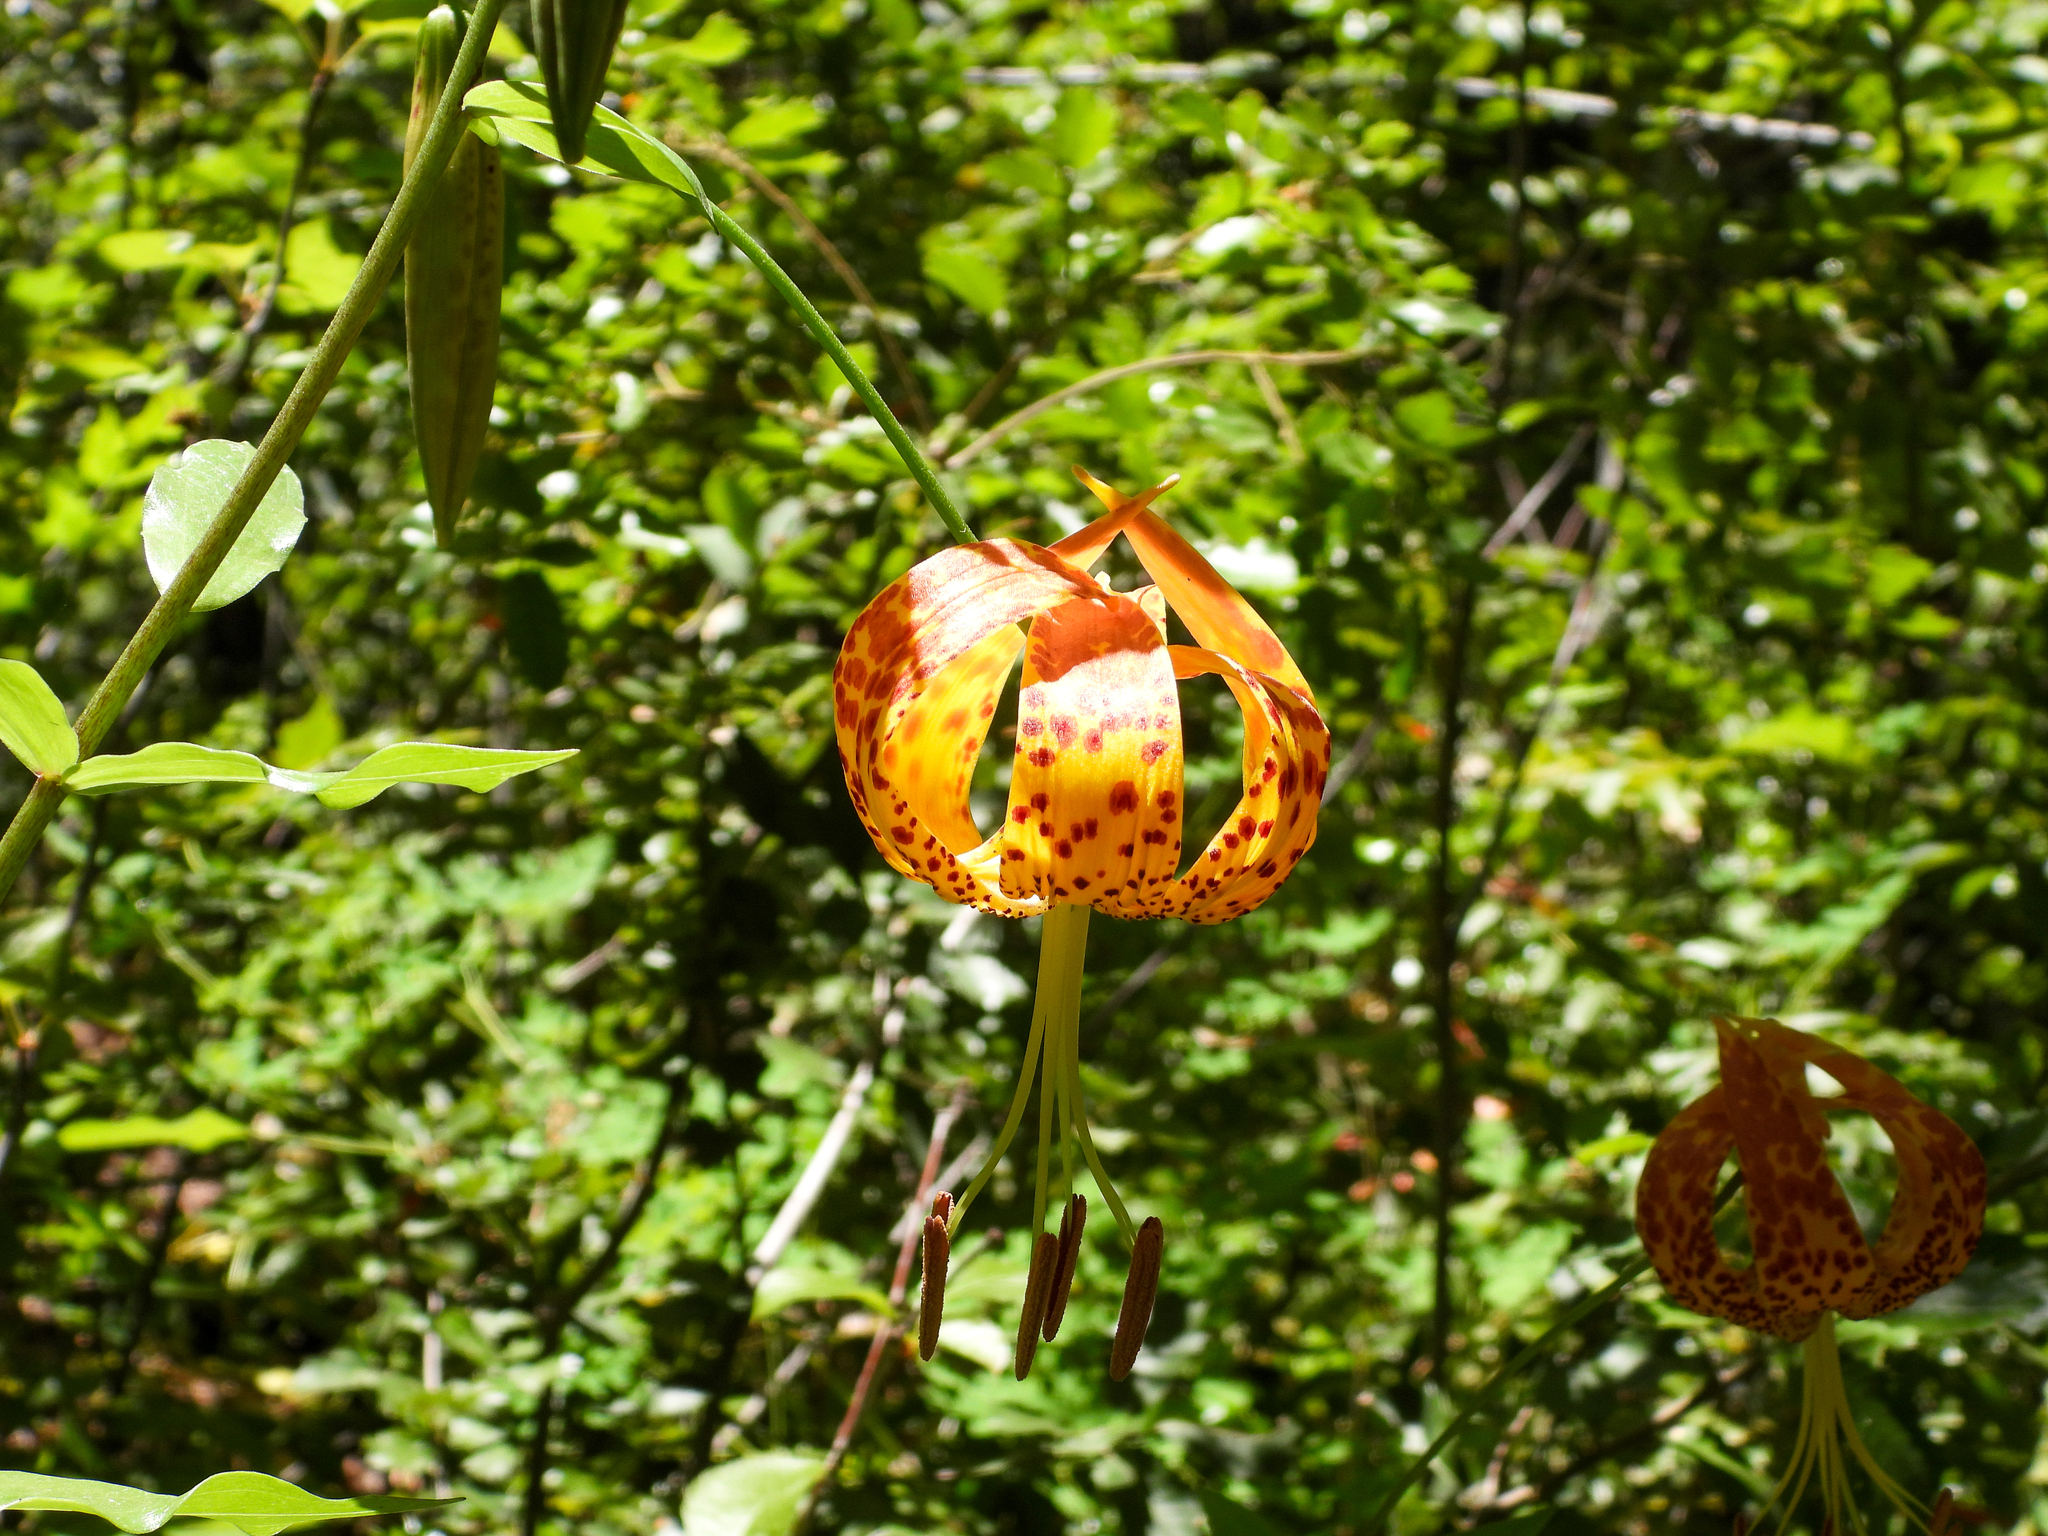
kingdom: Plantae
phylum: Tracheophyta
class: Liliopsida
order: Liliales
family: Liliaceae
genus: Lilium
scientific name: Lilium humboldtii
